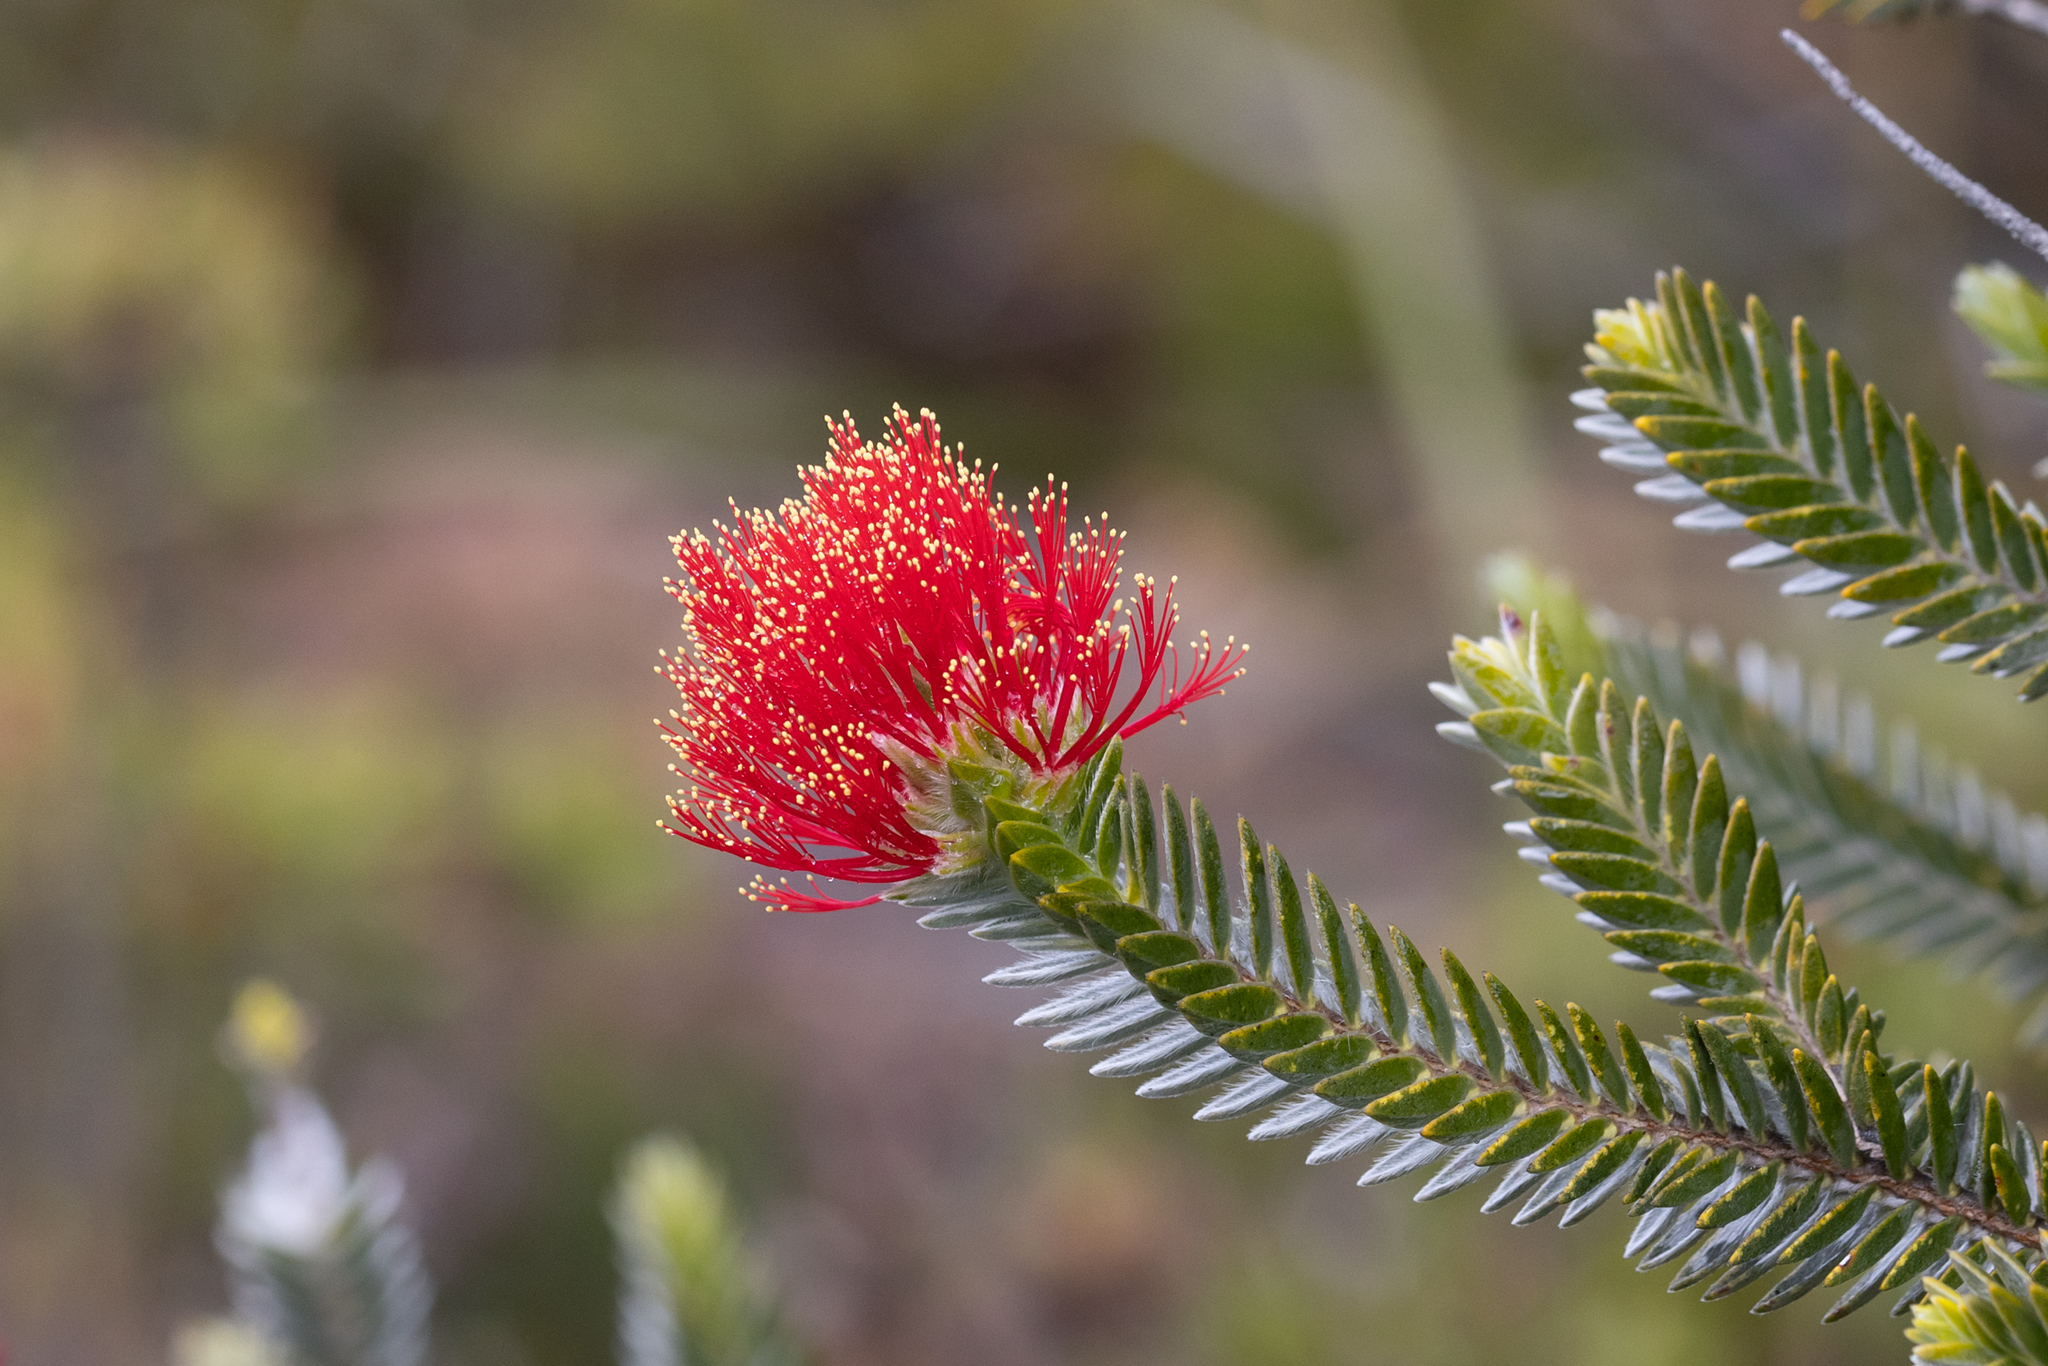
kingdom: Plantae
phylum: Tracheophyta
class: Magnoliopsida
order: Myrtales
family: Myrtaceae
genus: Melaleuca
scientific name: Melaleuca velutina
